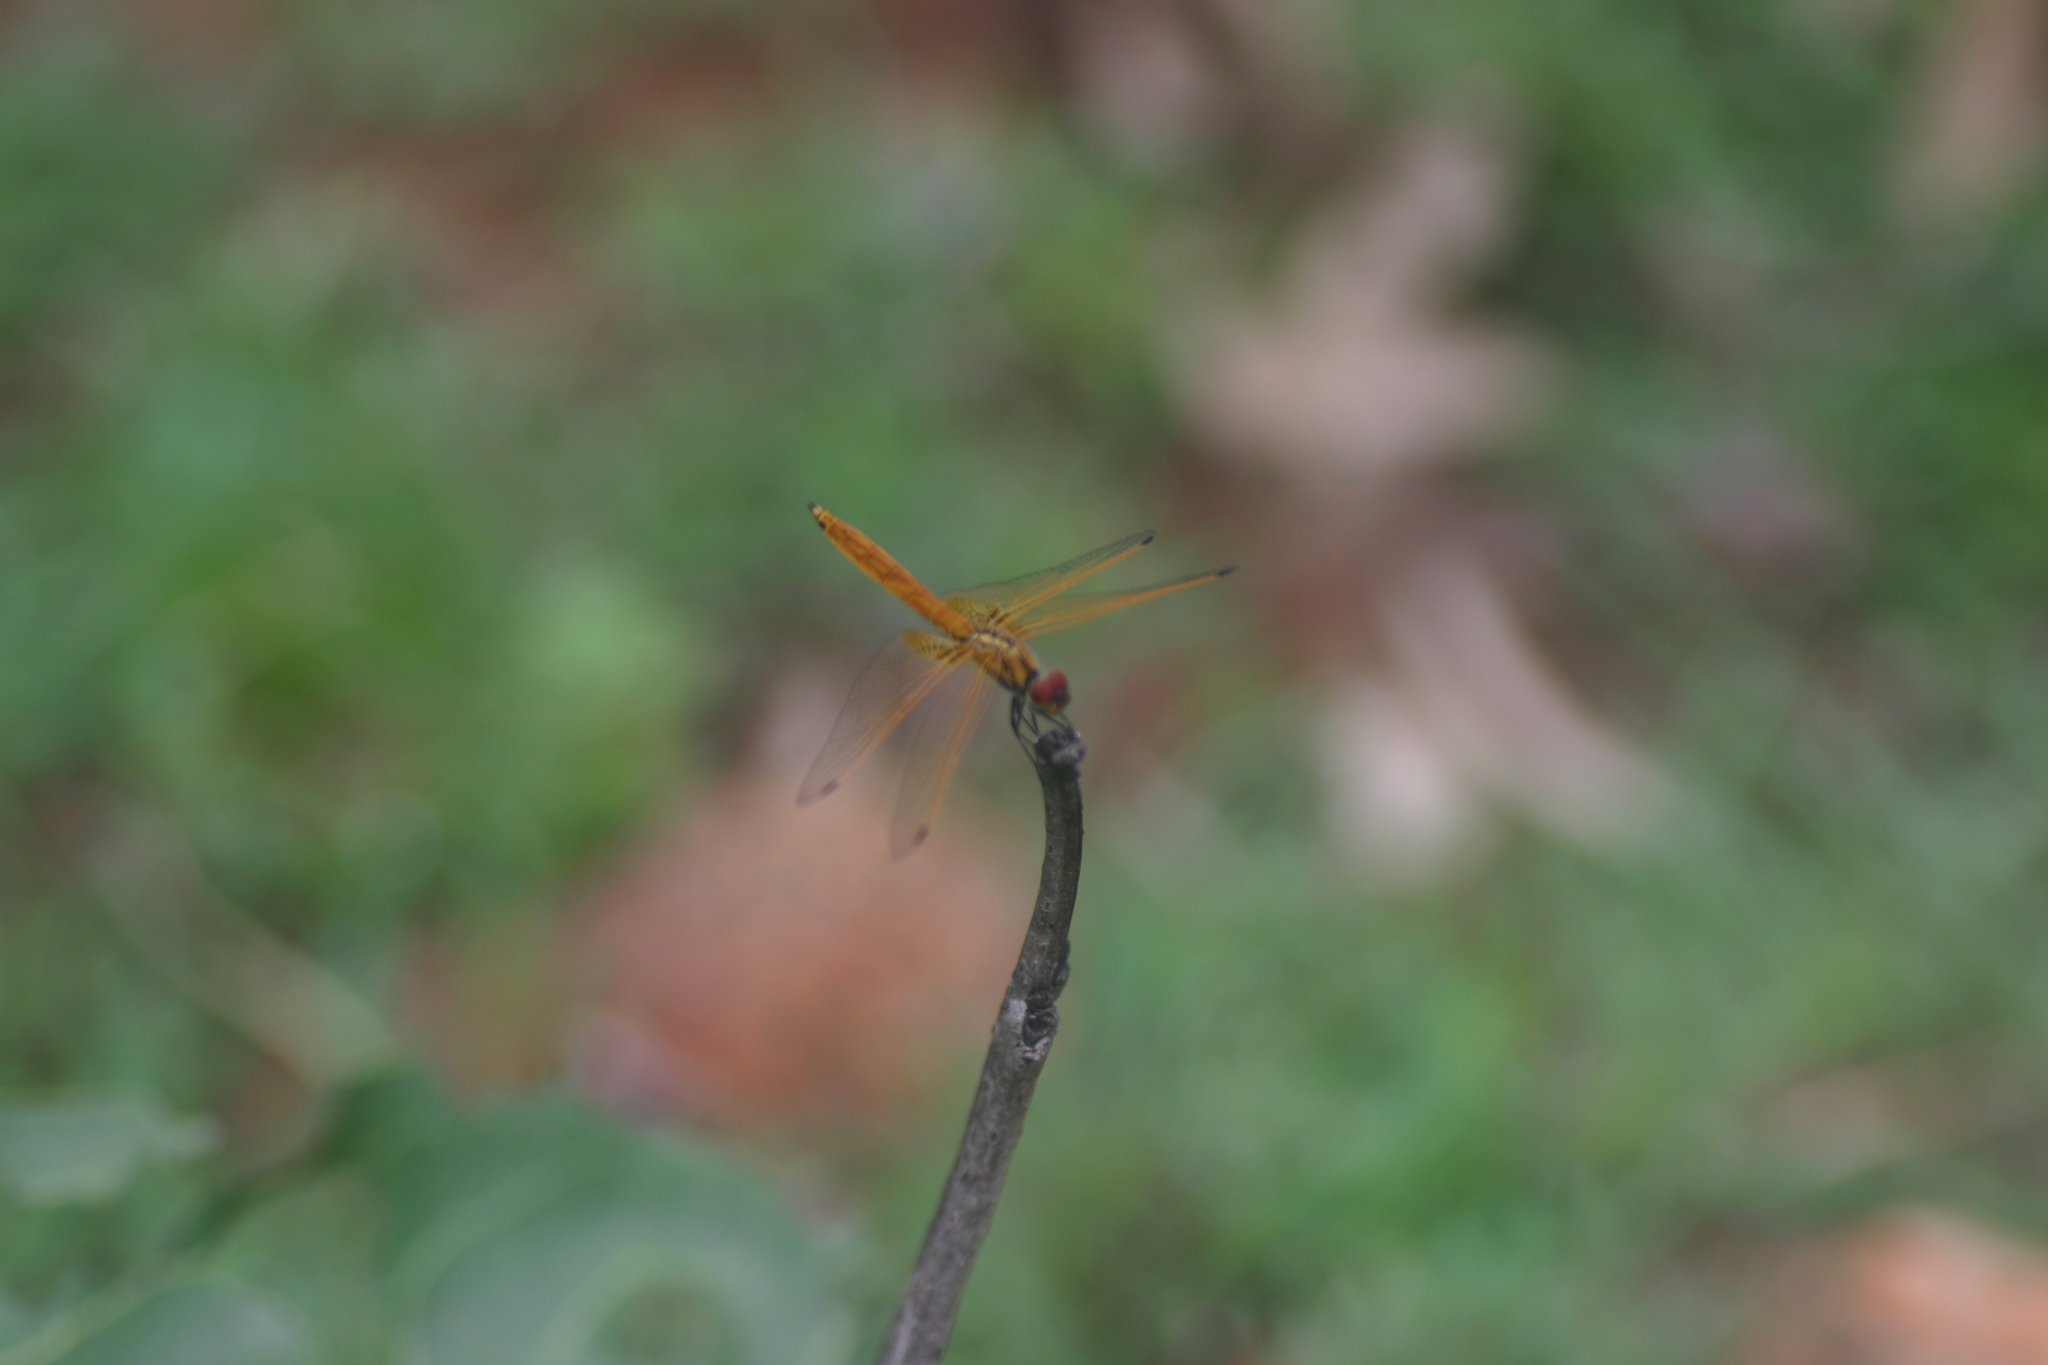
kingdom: Animalia
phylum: Arthropoda
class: Insecta
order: Odonata
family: Libellulidae
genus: Trithemis
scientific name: Trithemis aurora
